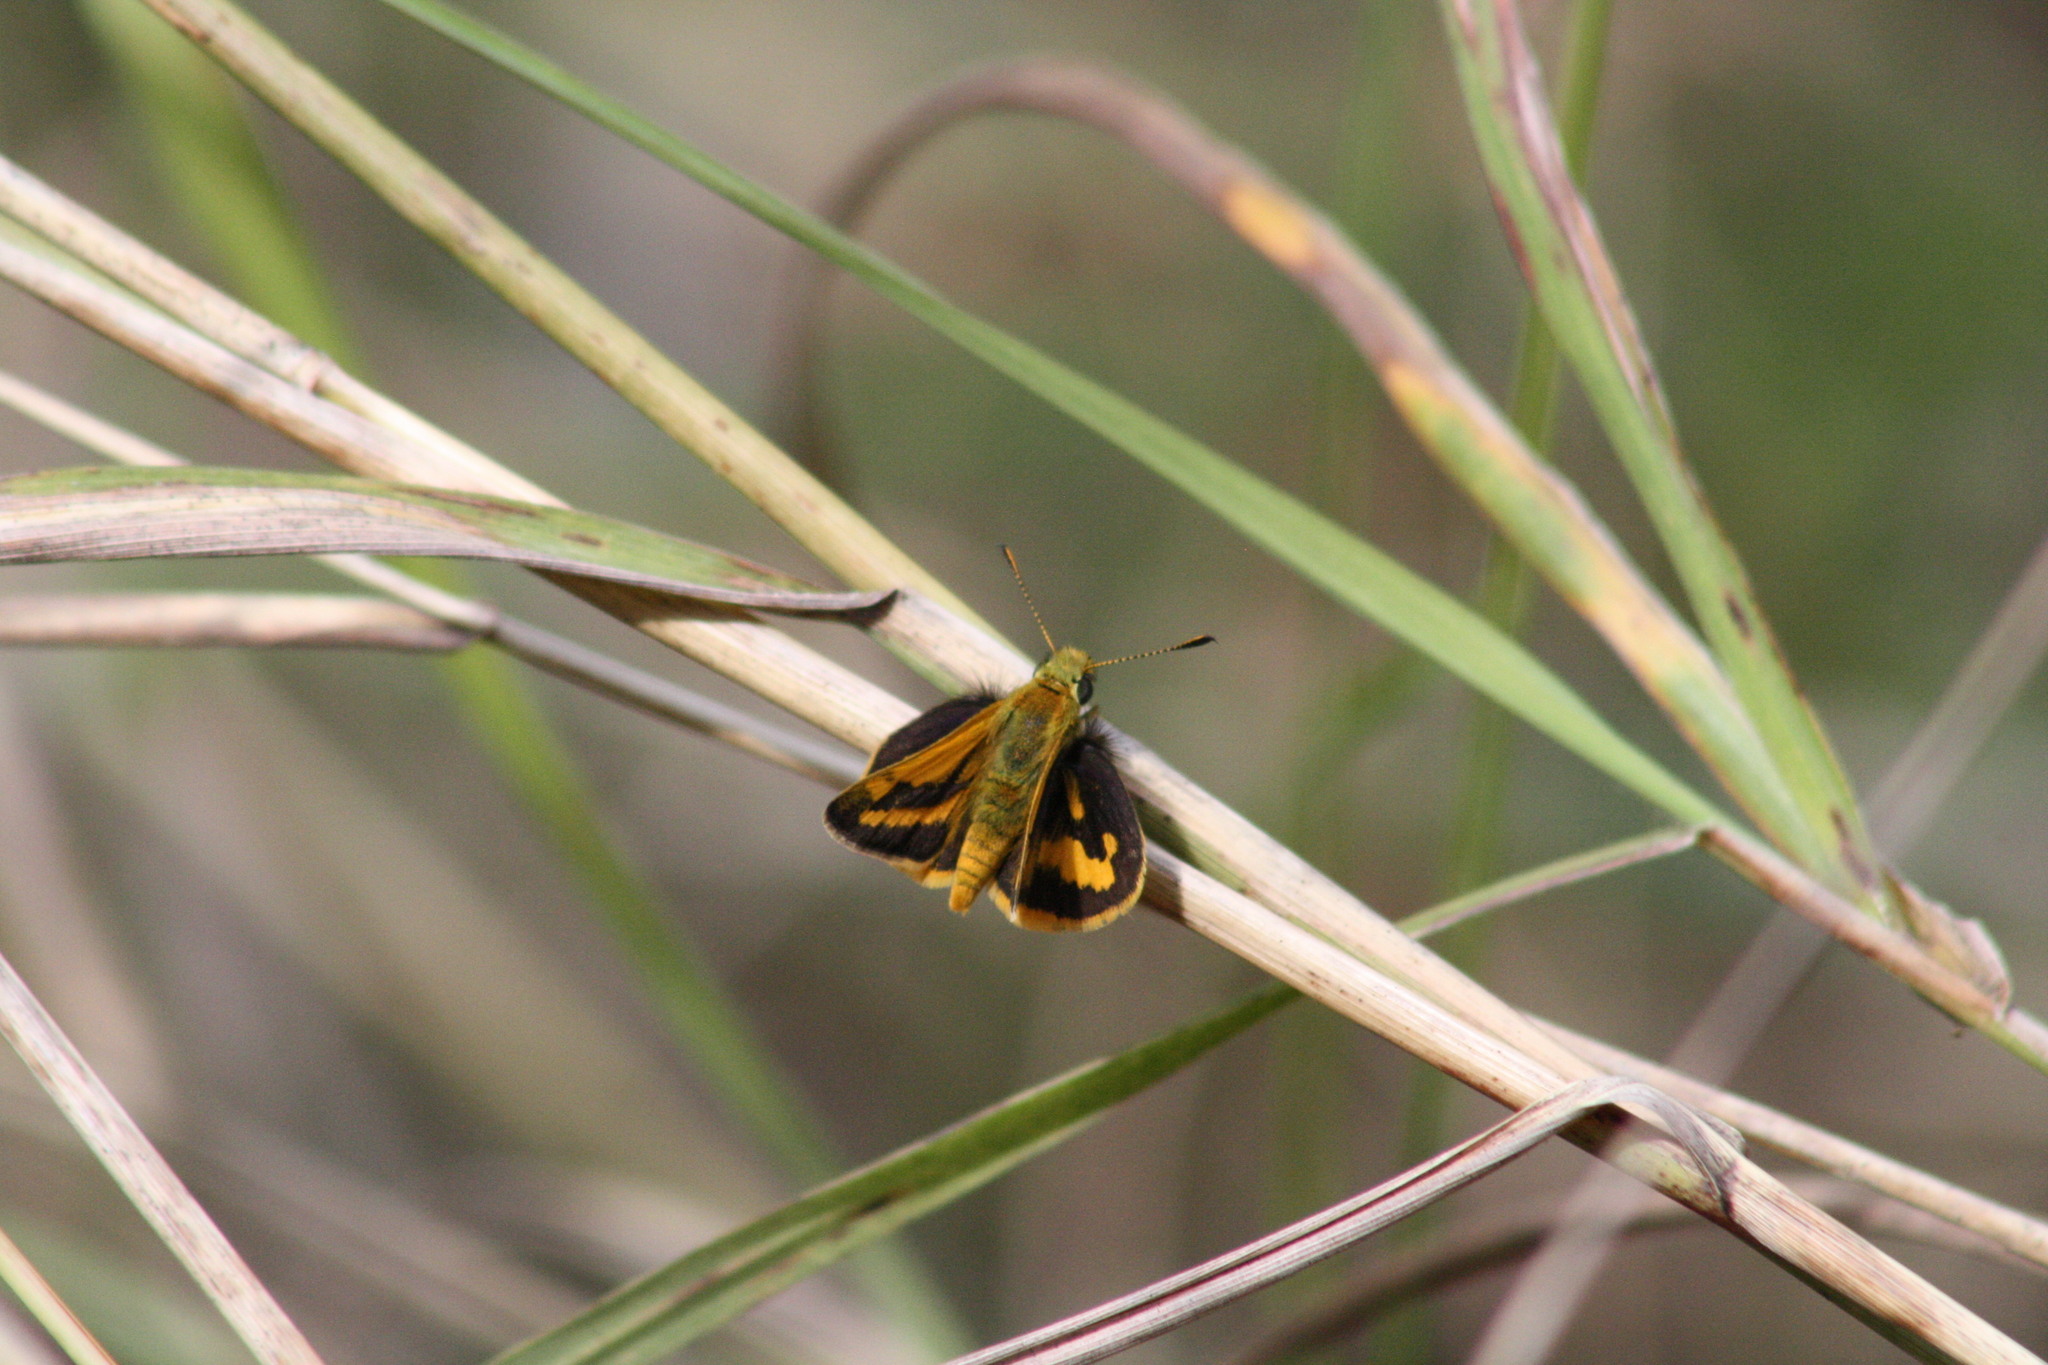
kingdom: Animalia
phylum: Arthropoda
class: Insecta
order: Lepidoptera
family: Hesperiidae
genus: Ocybadistes
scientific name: Ocybadistes walkeri
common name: Yellow-banded dart
